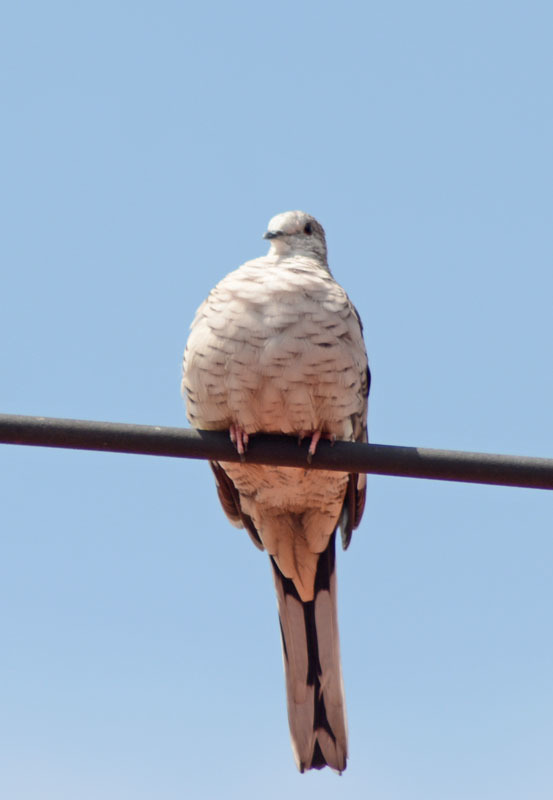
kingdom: Animalia
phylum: Chordata
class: Aves
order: Columbiformes
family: Columbidae
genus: Columbina
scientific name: Columbina inca
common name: Inca dove
